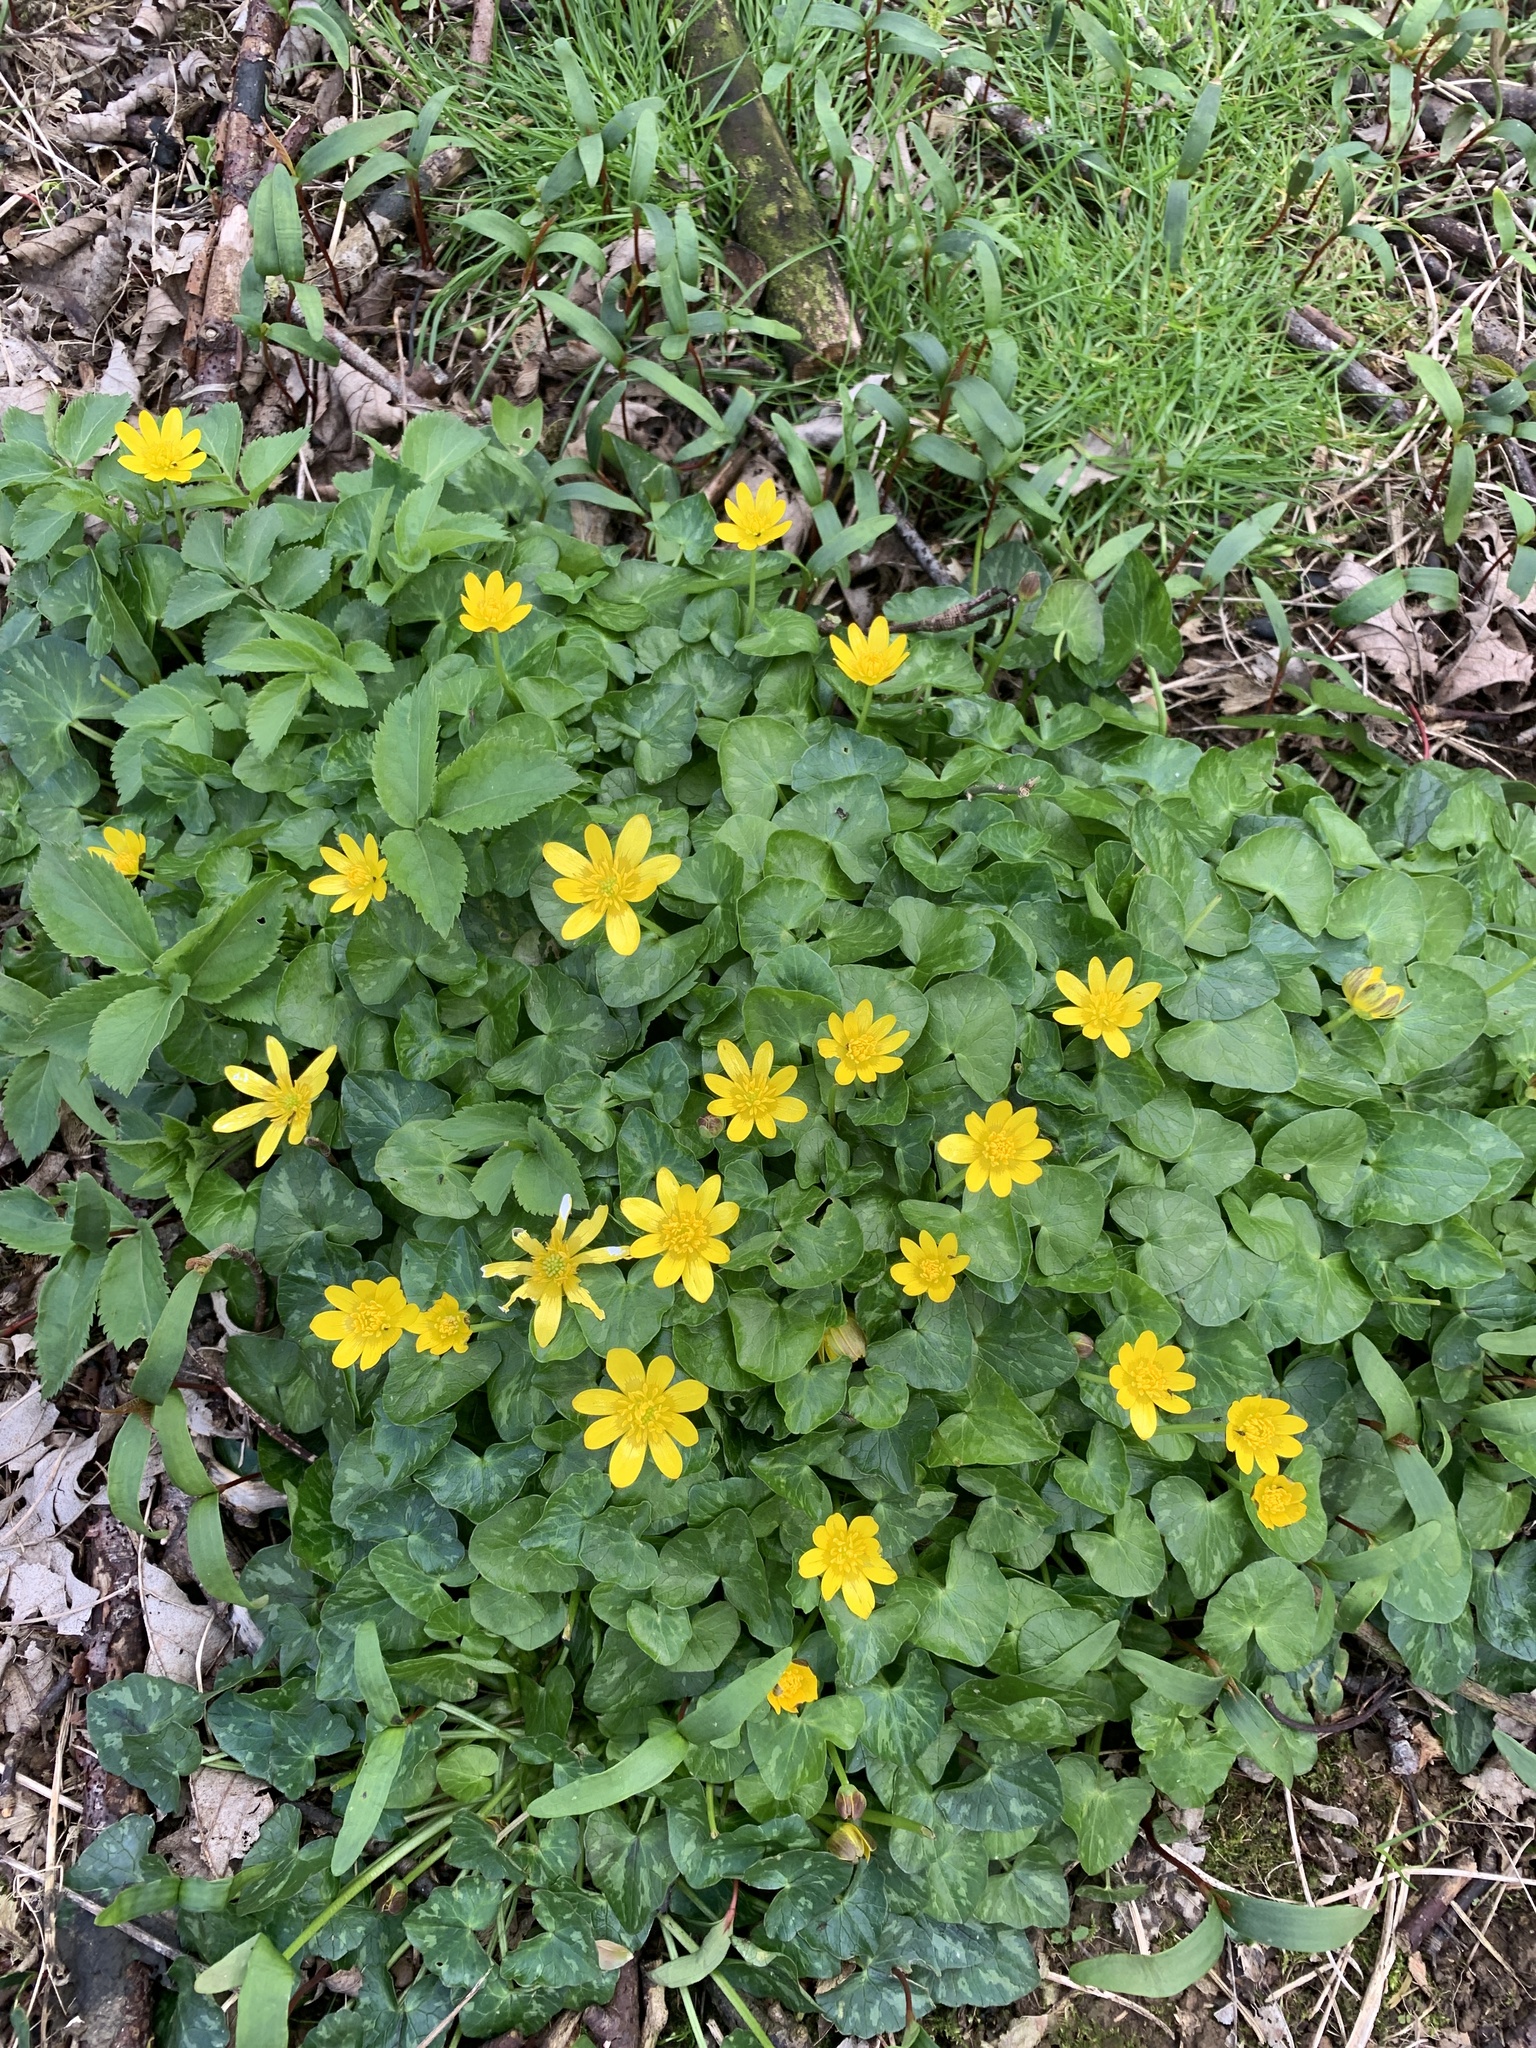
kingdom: Plantae
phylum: Tracheophyta
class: Magnoliopsida
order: Ranunculales
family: Ranunculaceae
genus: Ficaria
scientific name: Ficaria verna
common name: Lesser celandine
